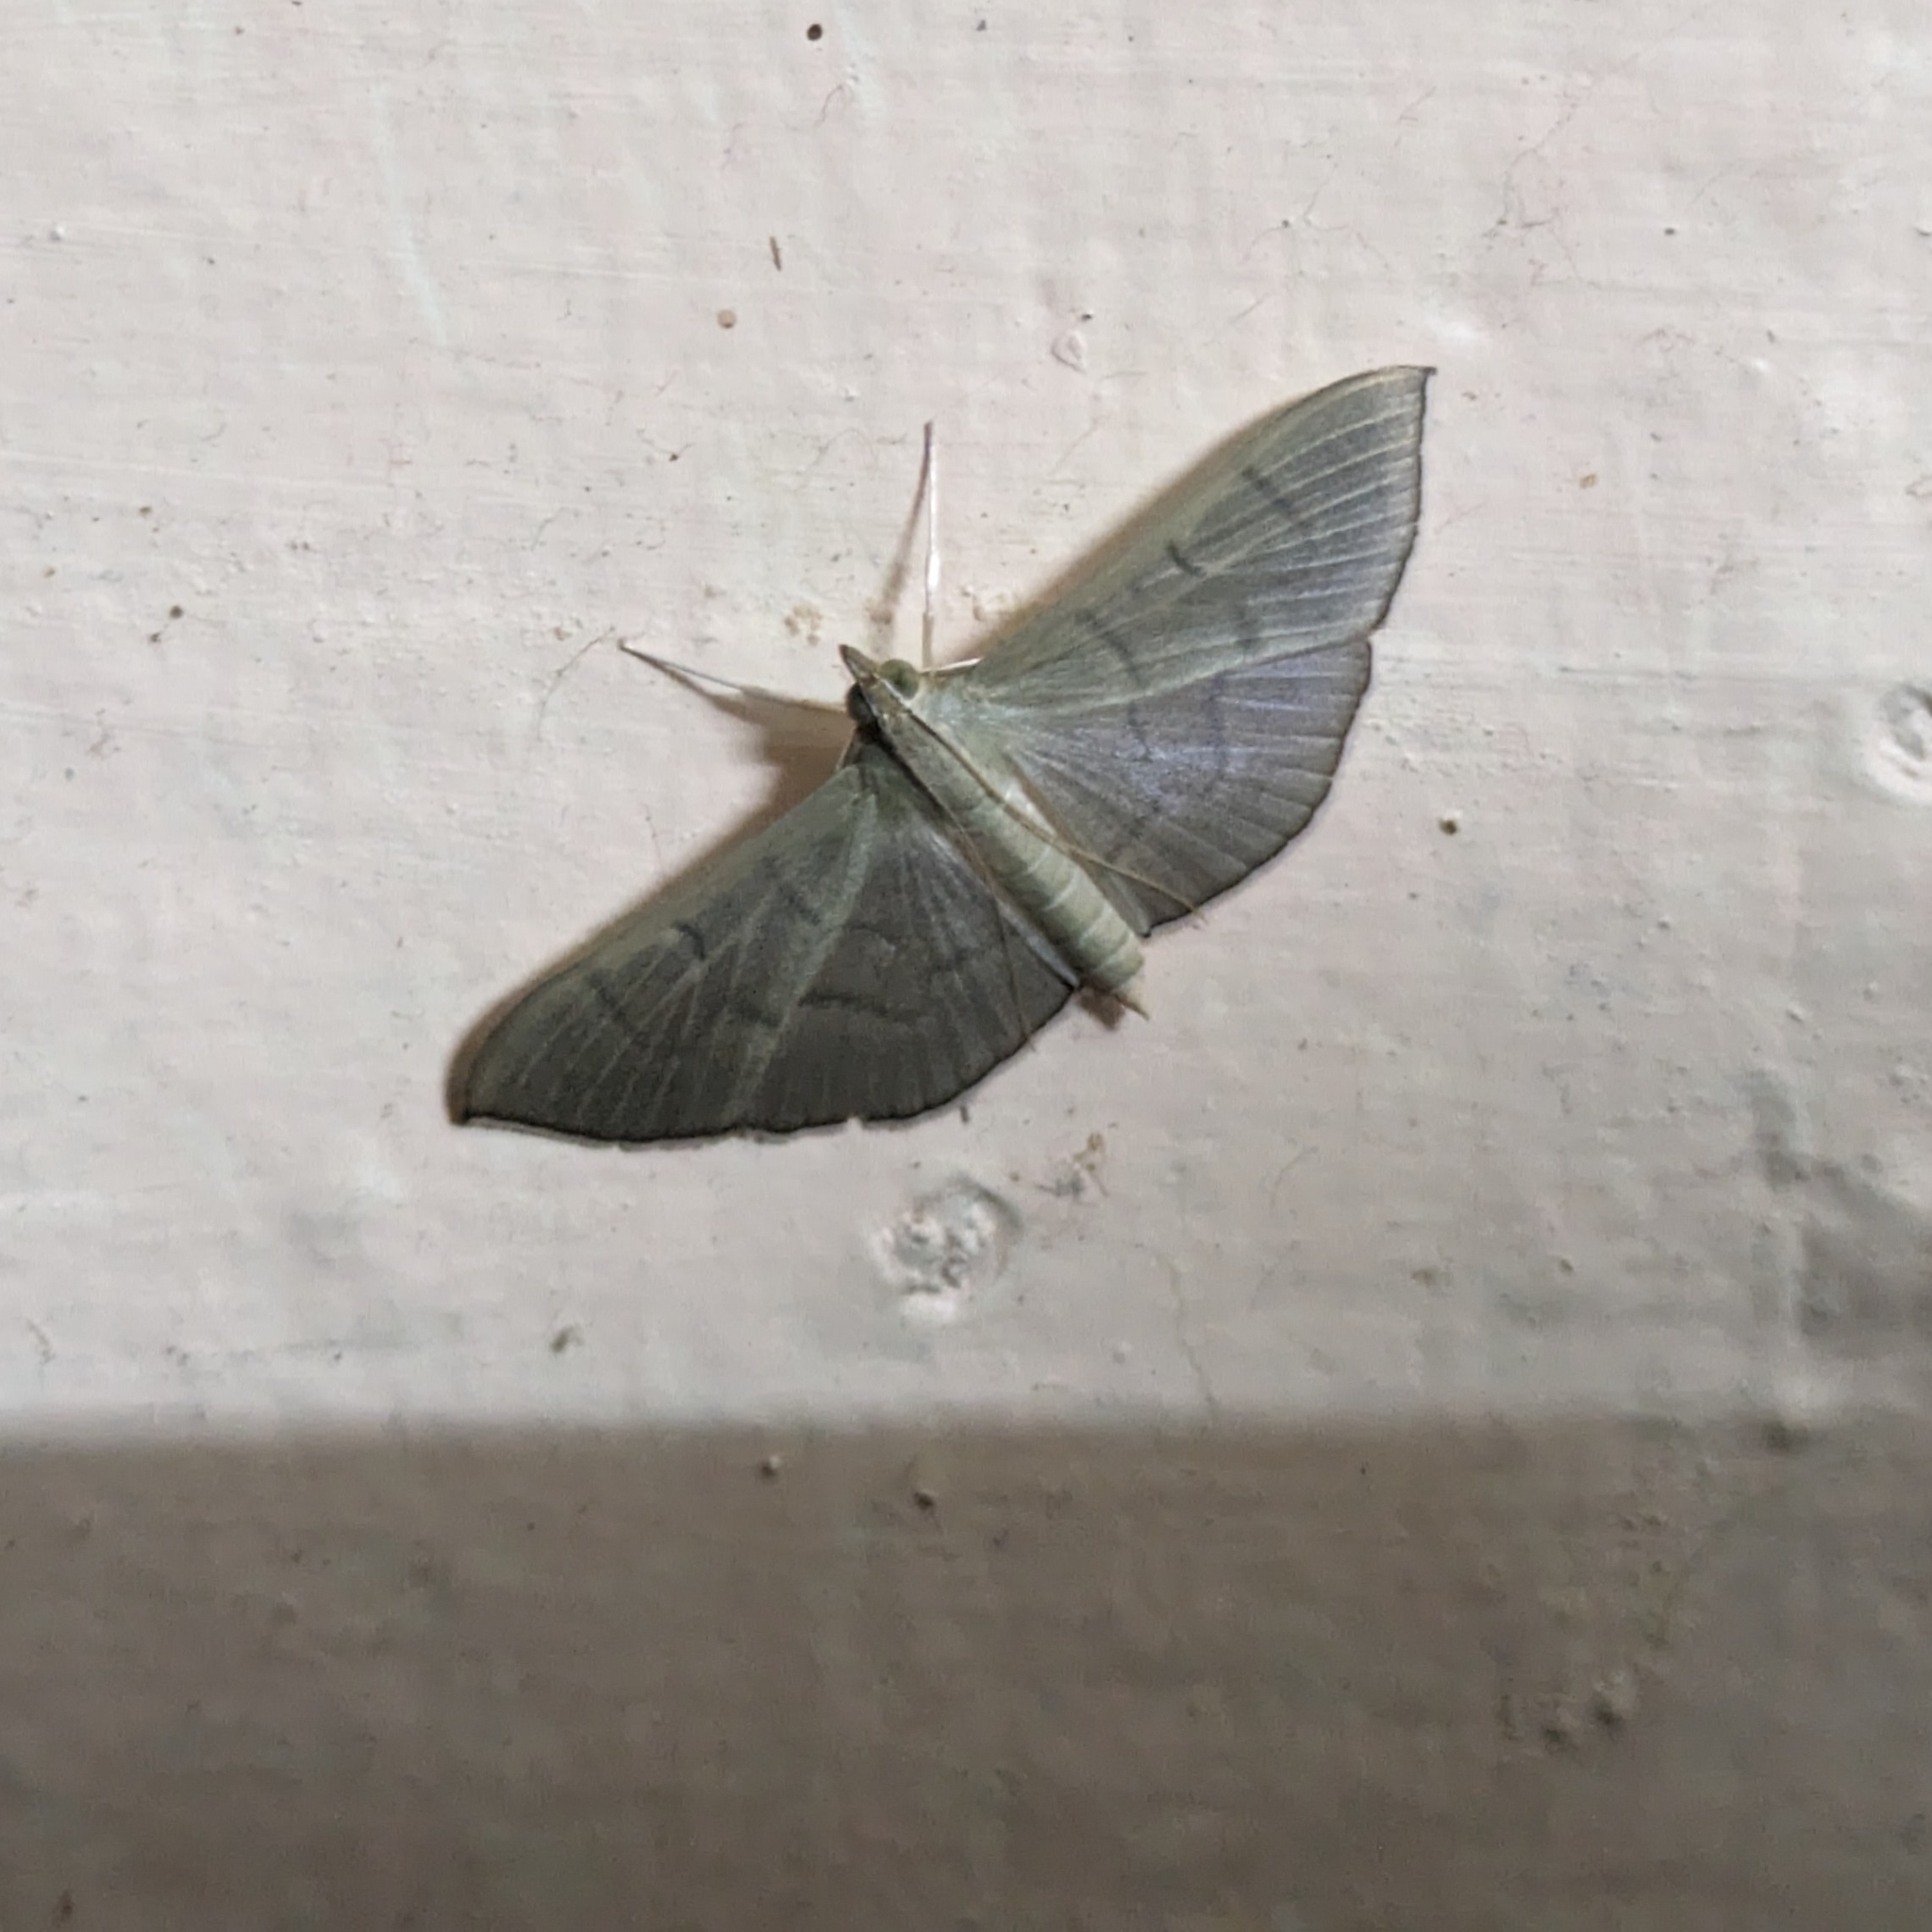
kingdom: Animalia
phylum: Arthropoda
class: Insecta
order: Lepidoptera
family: Crambidae
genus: Lamprophaia
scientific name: Lamprophaia ablactalis
